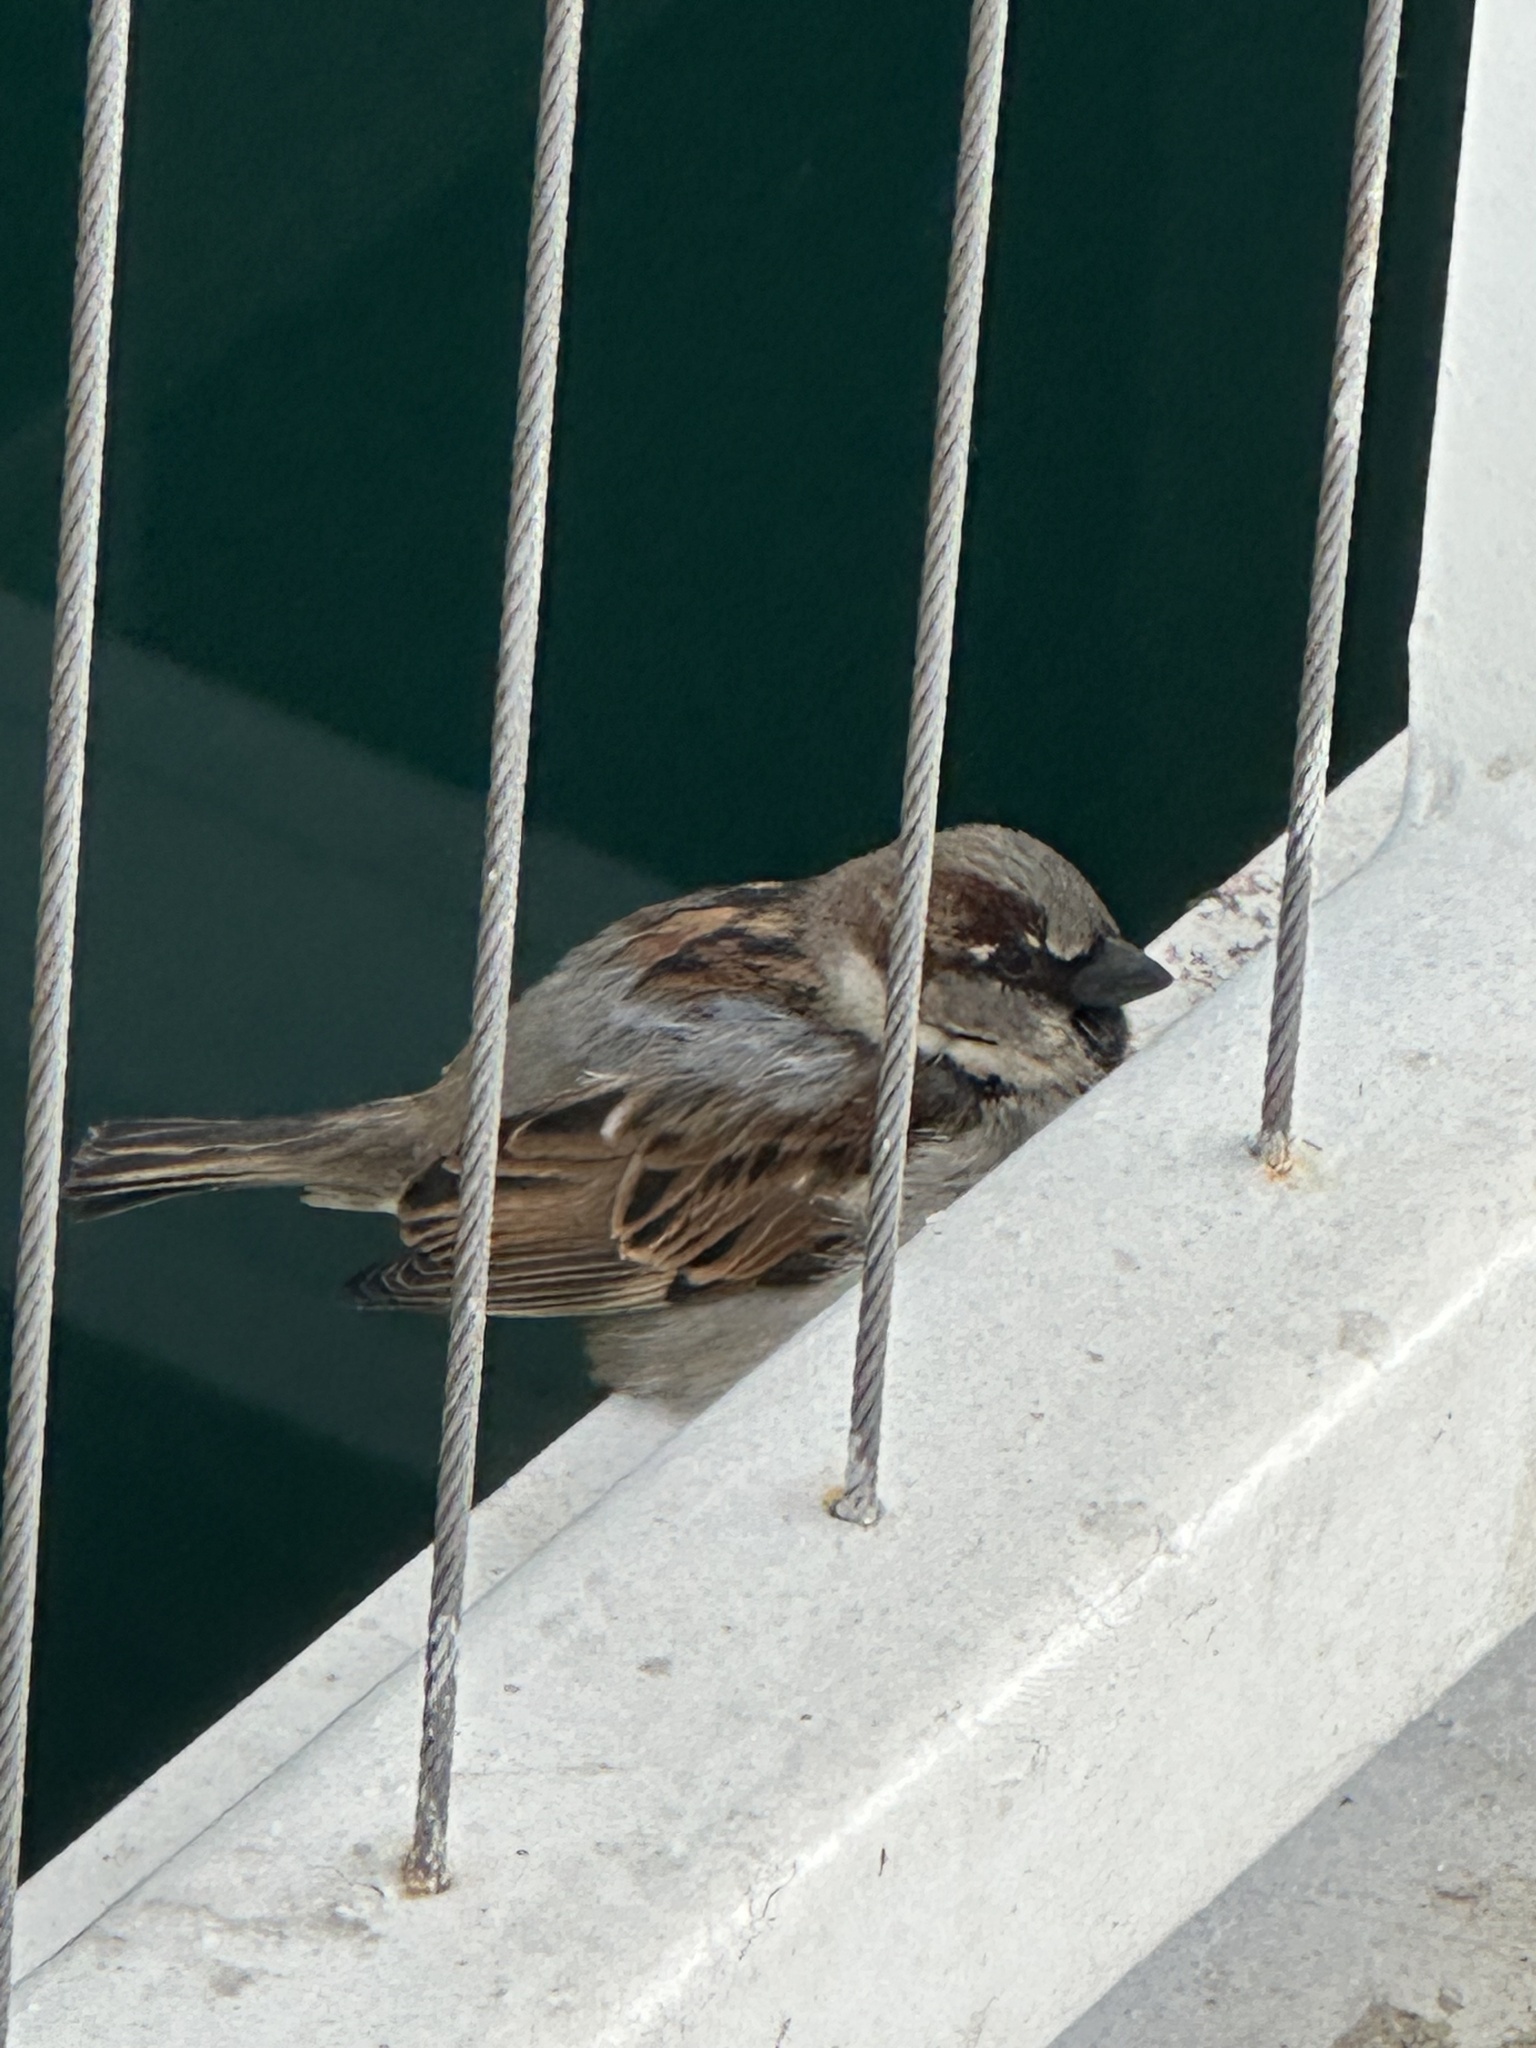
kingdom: Animalia
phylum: Chordata
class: Aves
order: Passeriformes
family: Passeridae
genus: Passer
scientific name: Passer domesticus
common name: House sparrow
